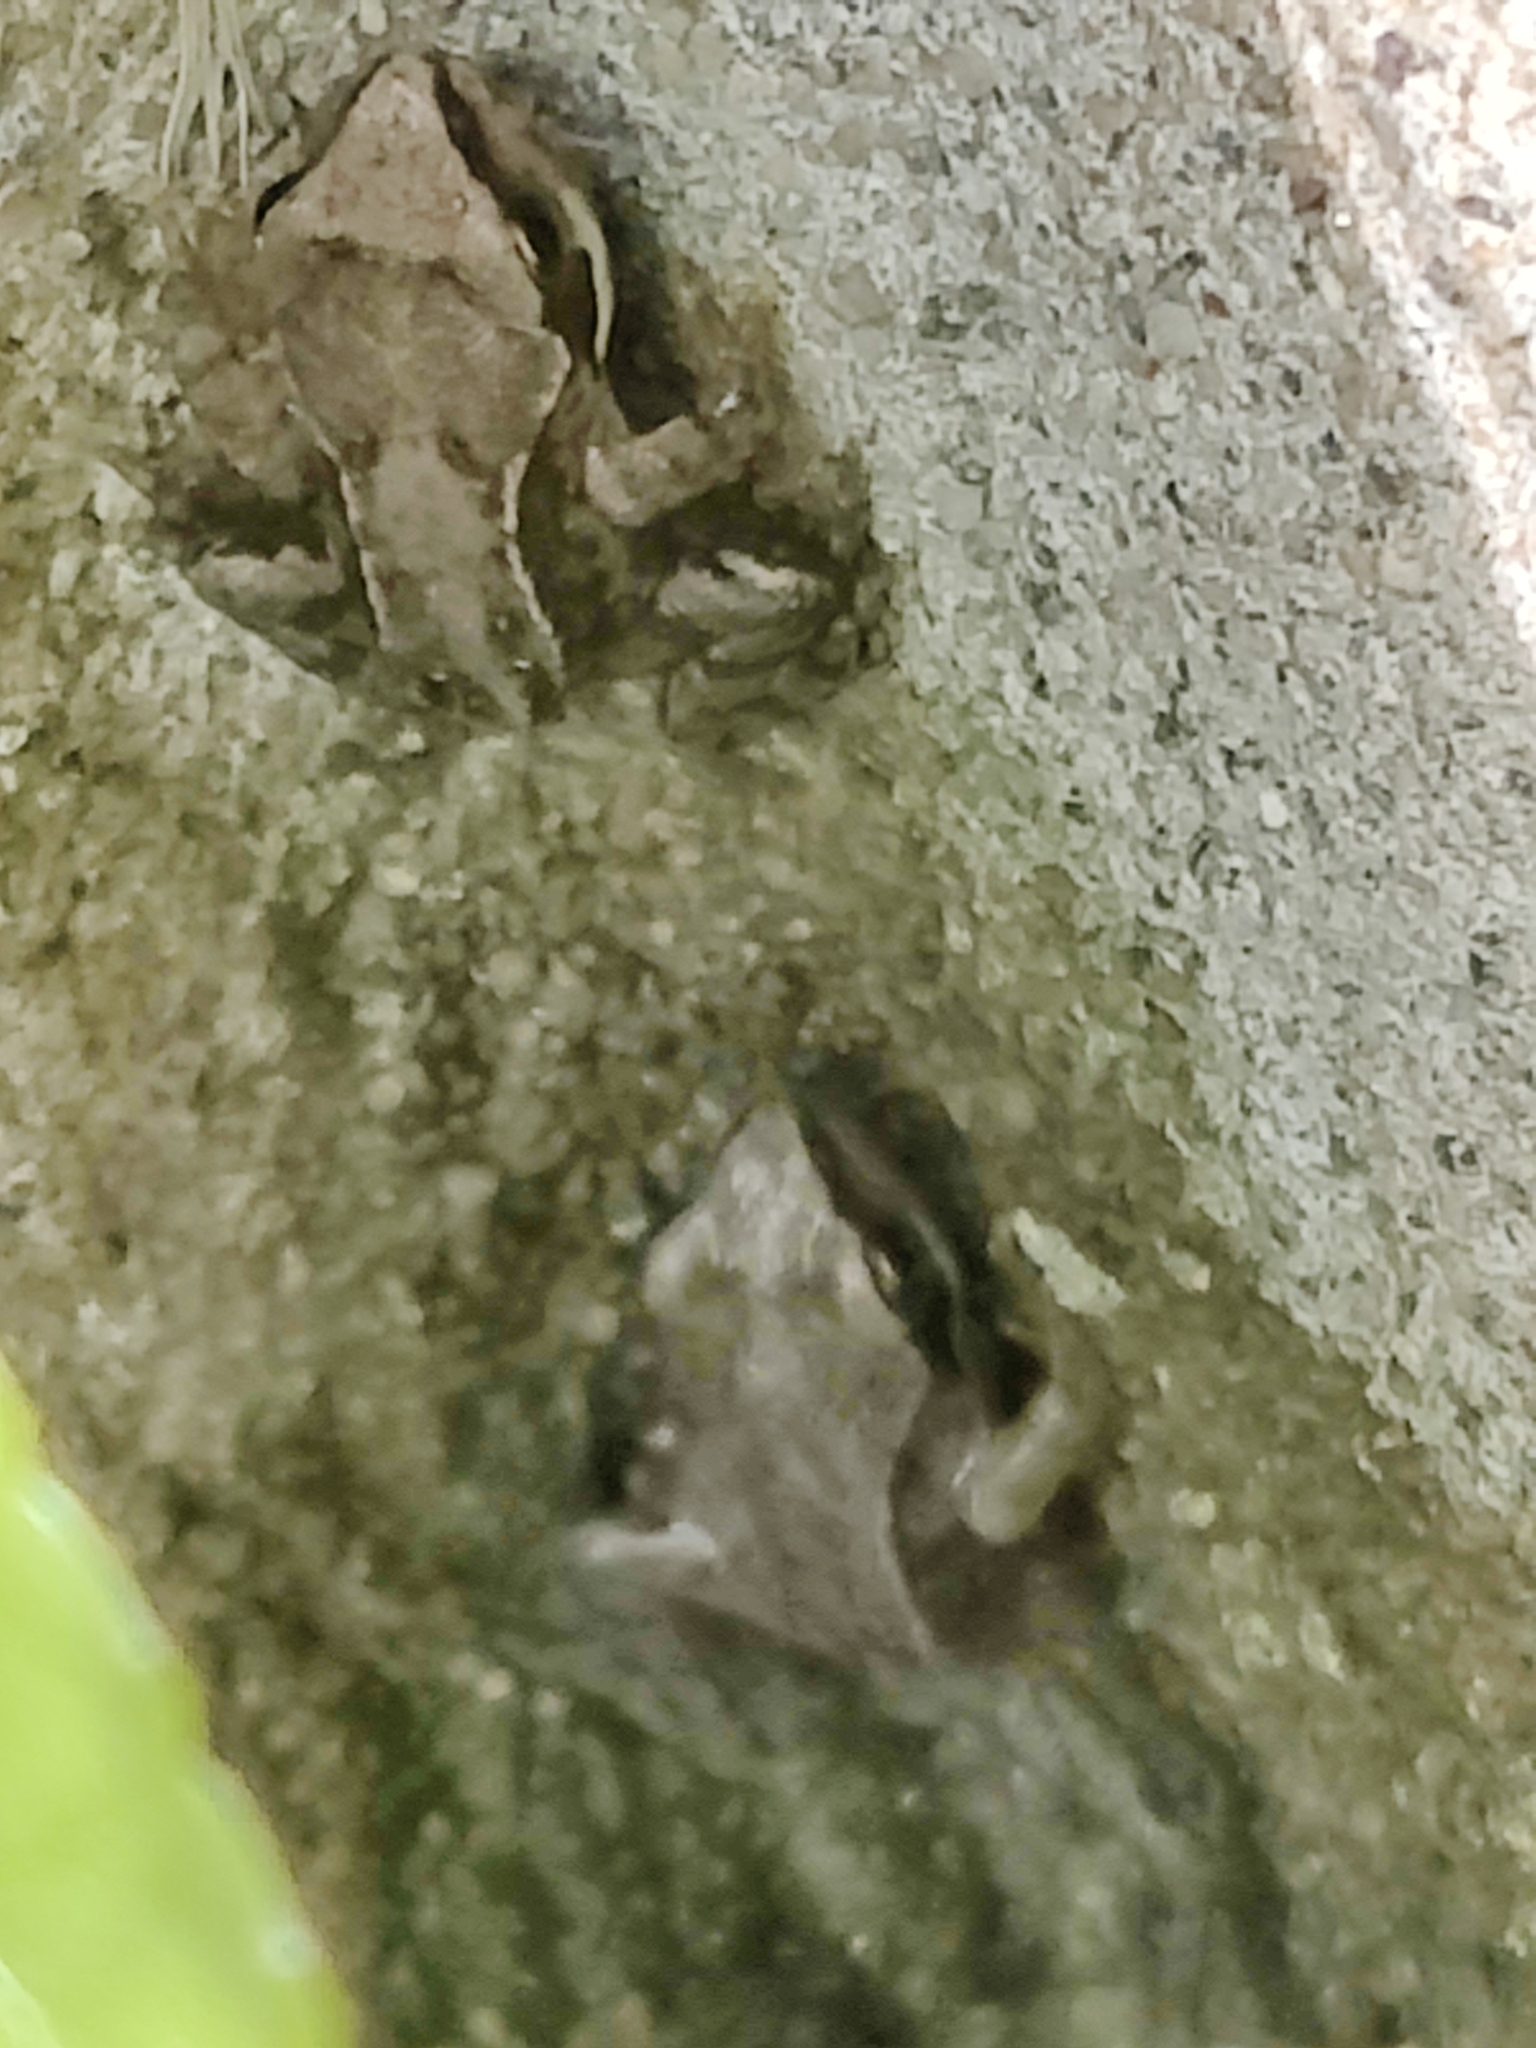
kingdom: Animalia
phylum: Chordata
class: Amphibia
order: Anura
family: Ranidae
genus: Rana
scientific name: Rana temporaria
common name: Common frog
